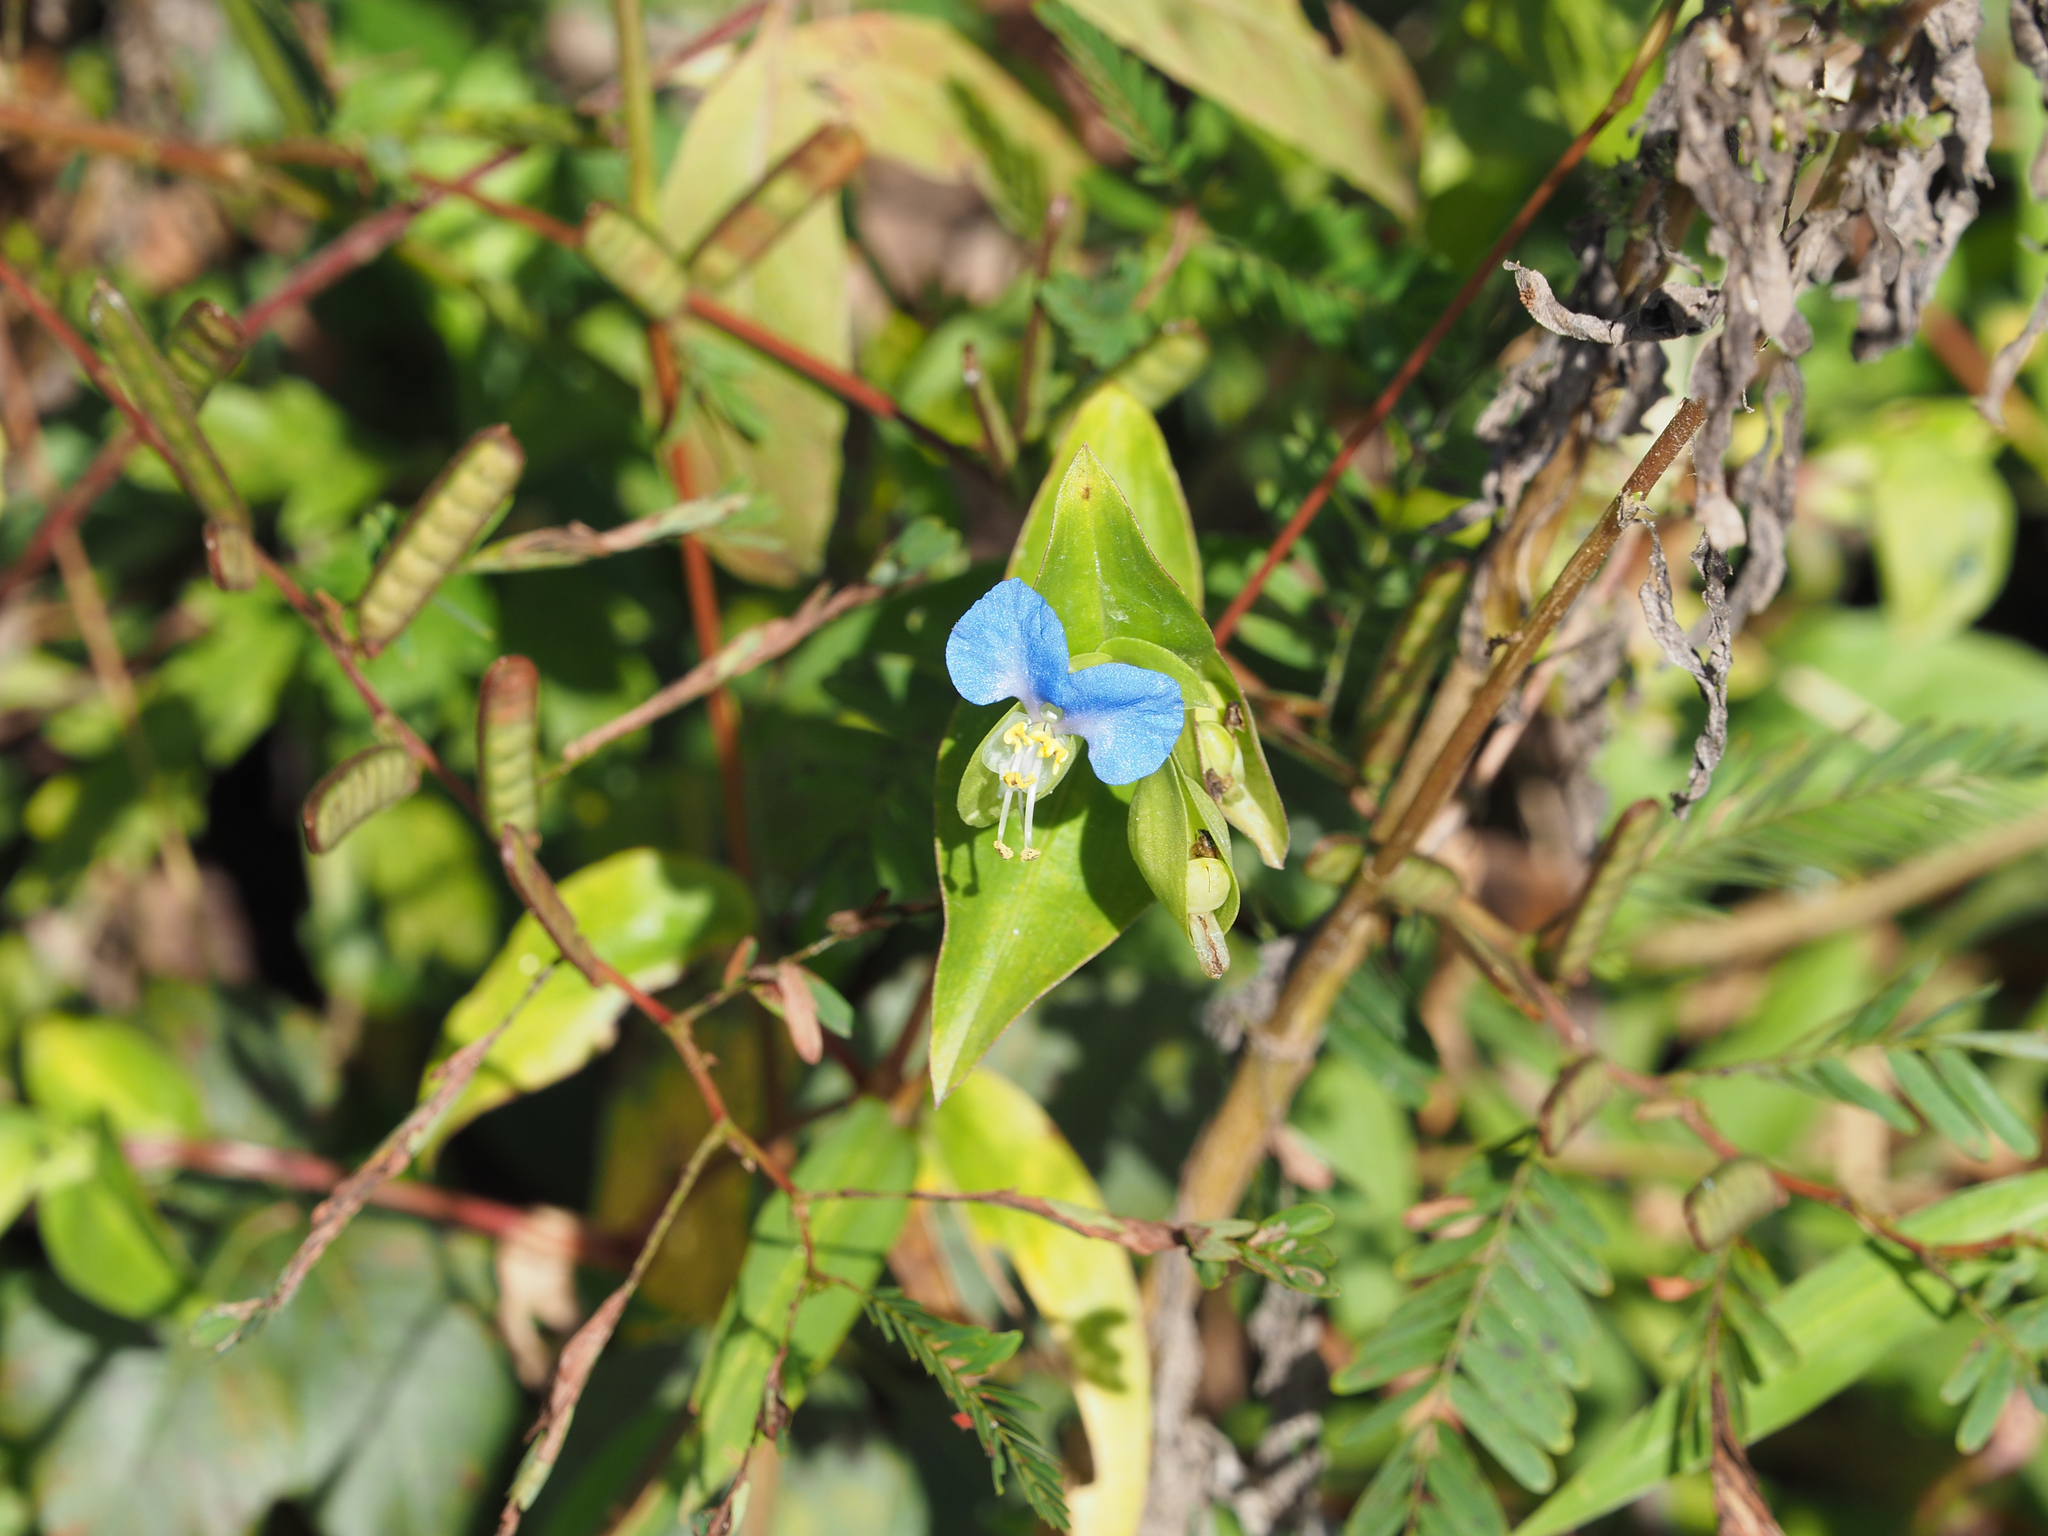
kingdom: Plantae
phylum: Tracheophyta
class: Liliopsida
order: Commelinales
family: Commelinaceae
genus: Commelina
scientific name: Commelina communis
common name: Asiatic dayflower
